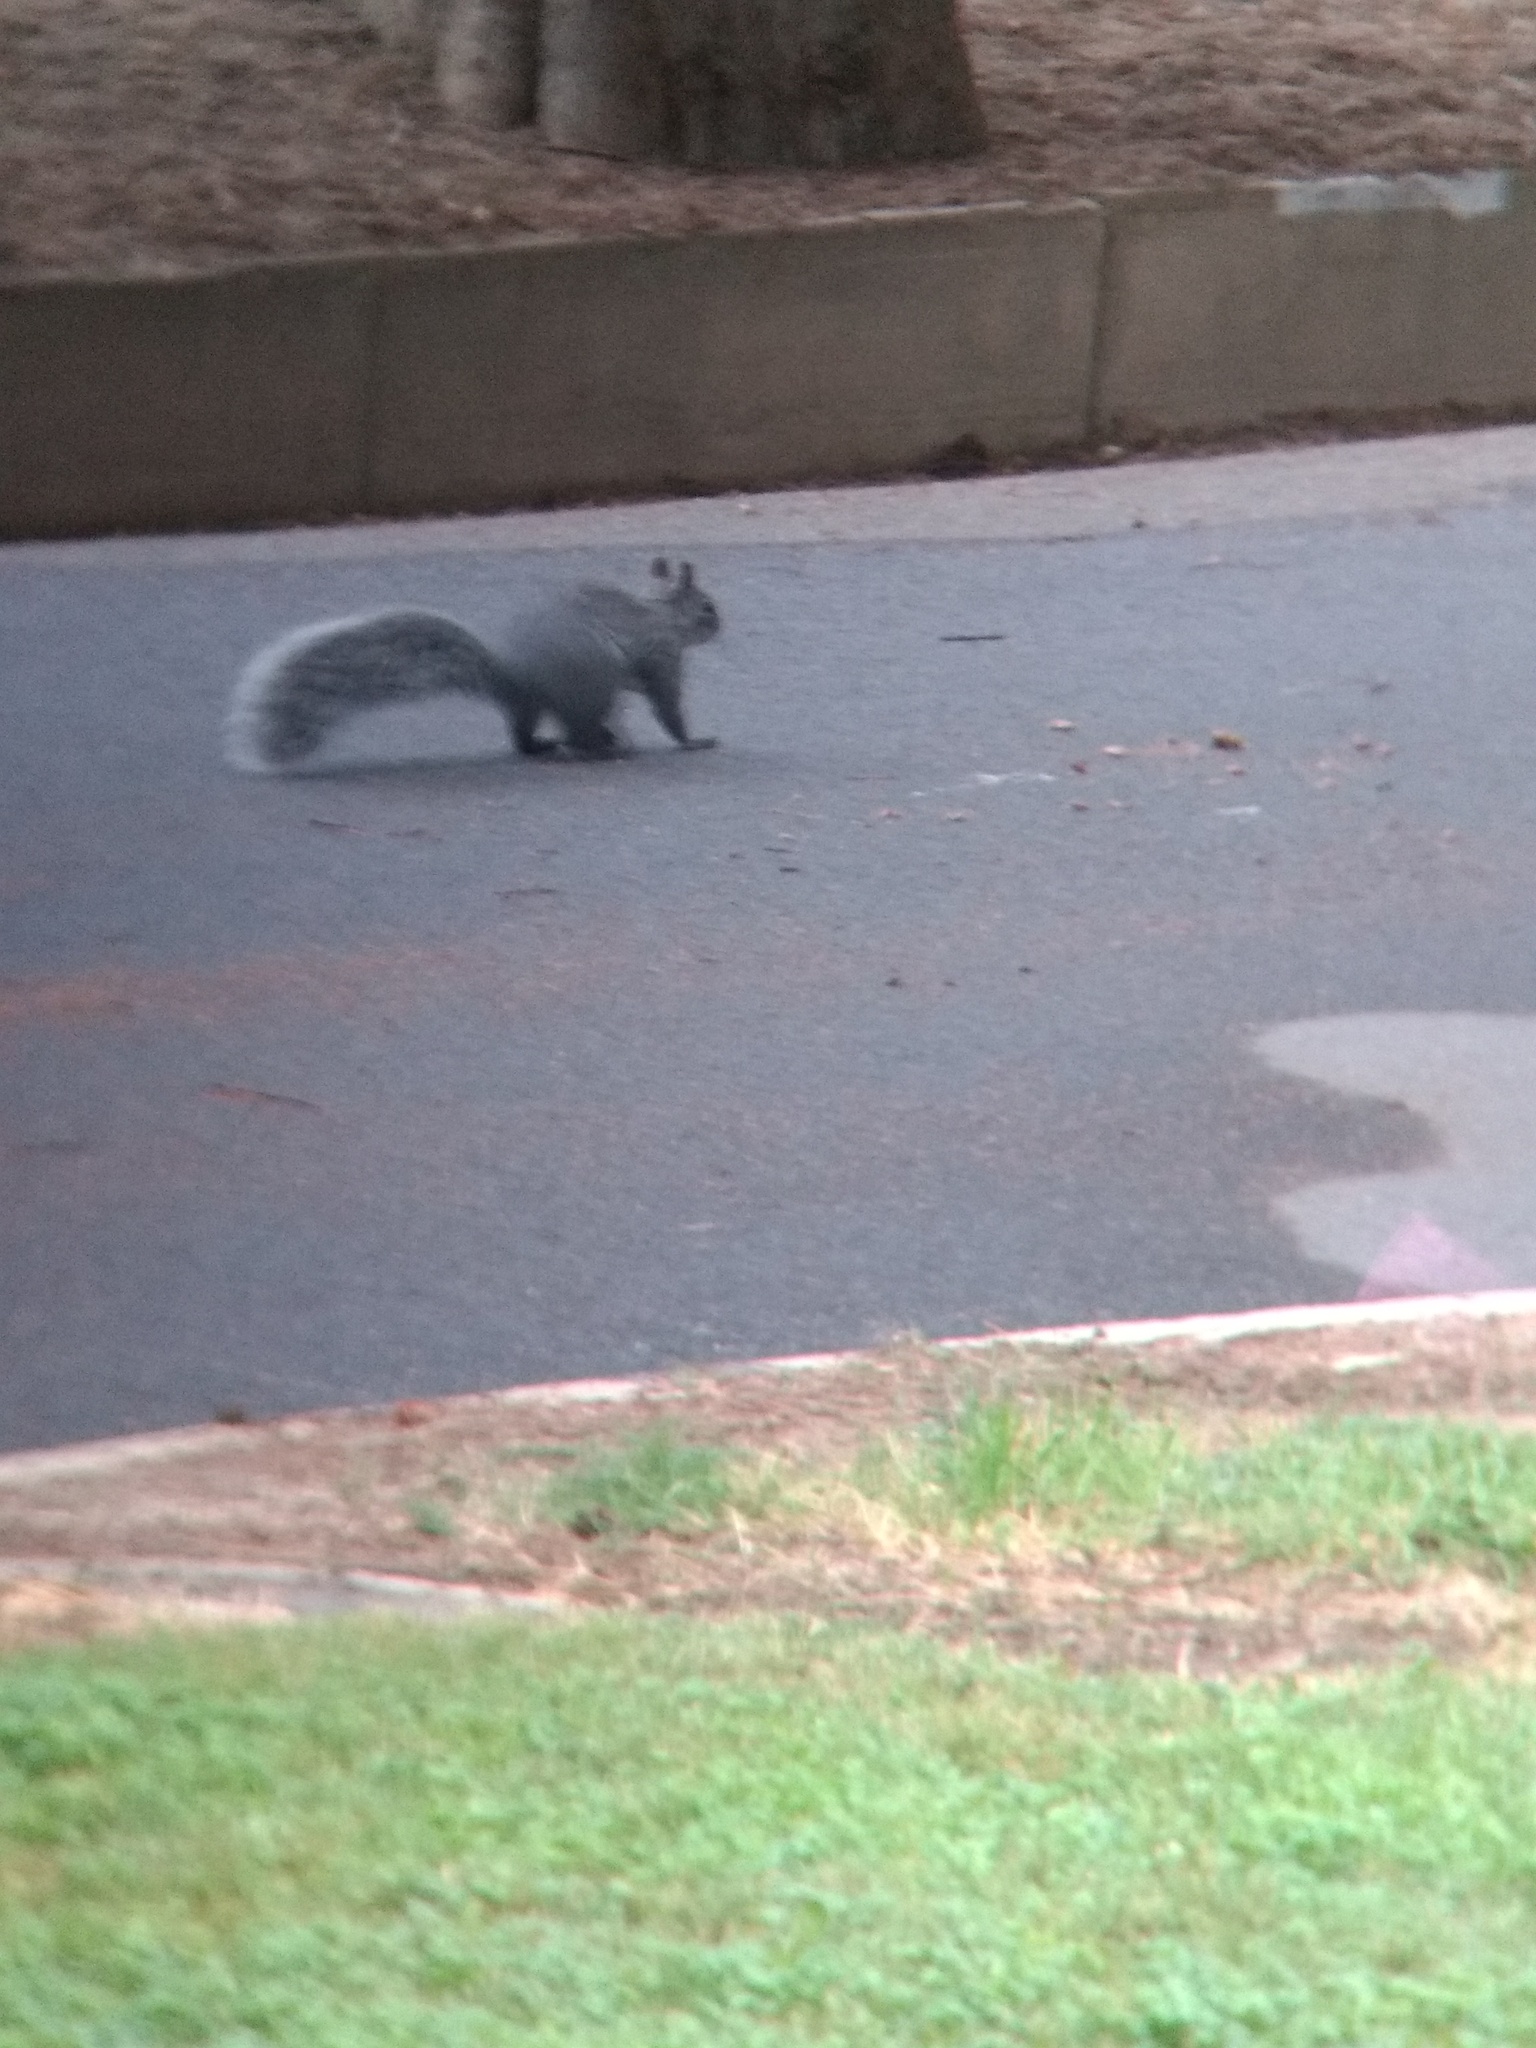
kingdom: Animalia
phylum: Chordata
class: Mammalia
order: Rodentia
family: Sciuridae
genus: Sciurus
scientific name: Sciurus griseus
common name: Western gray squirrel
